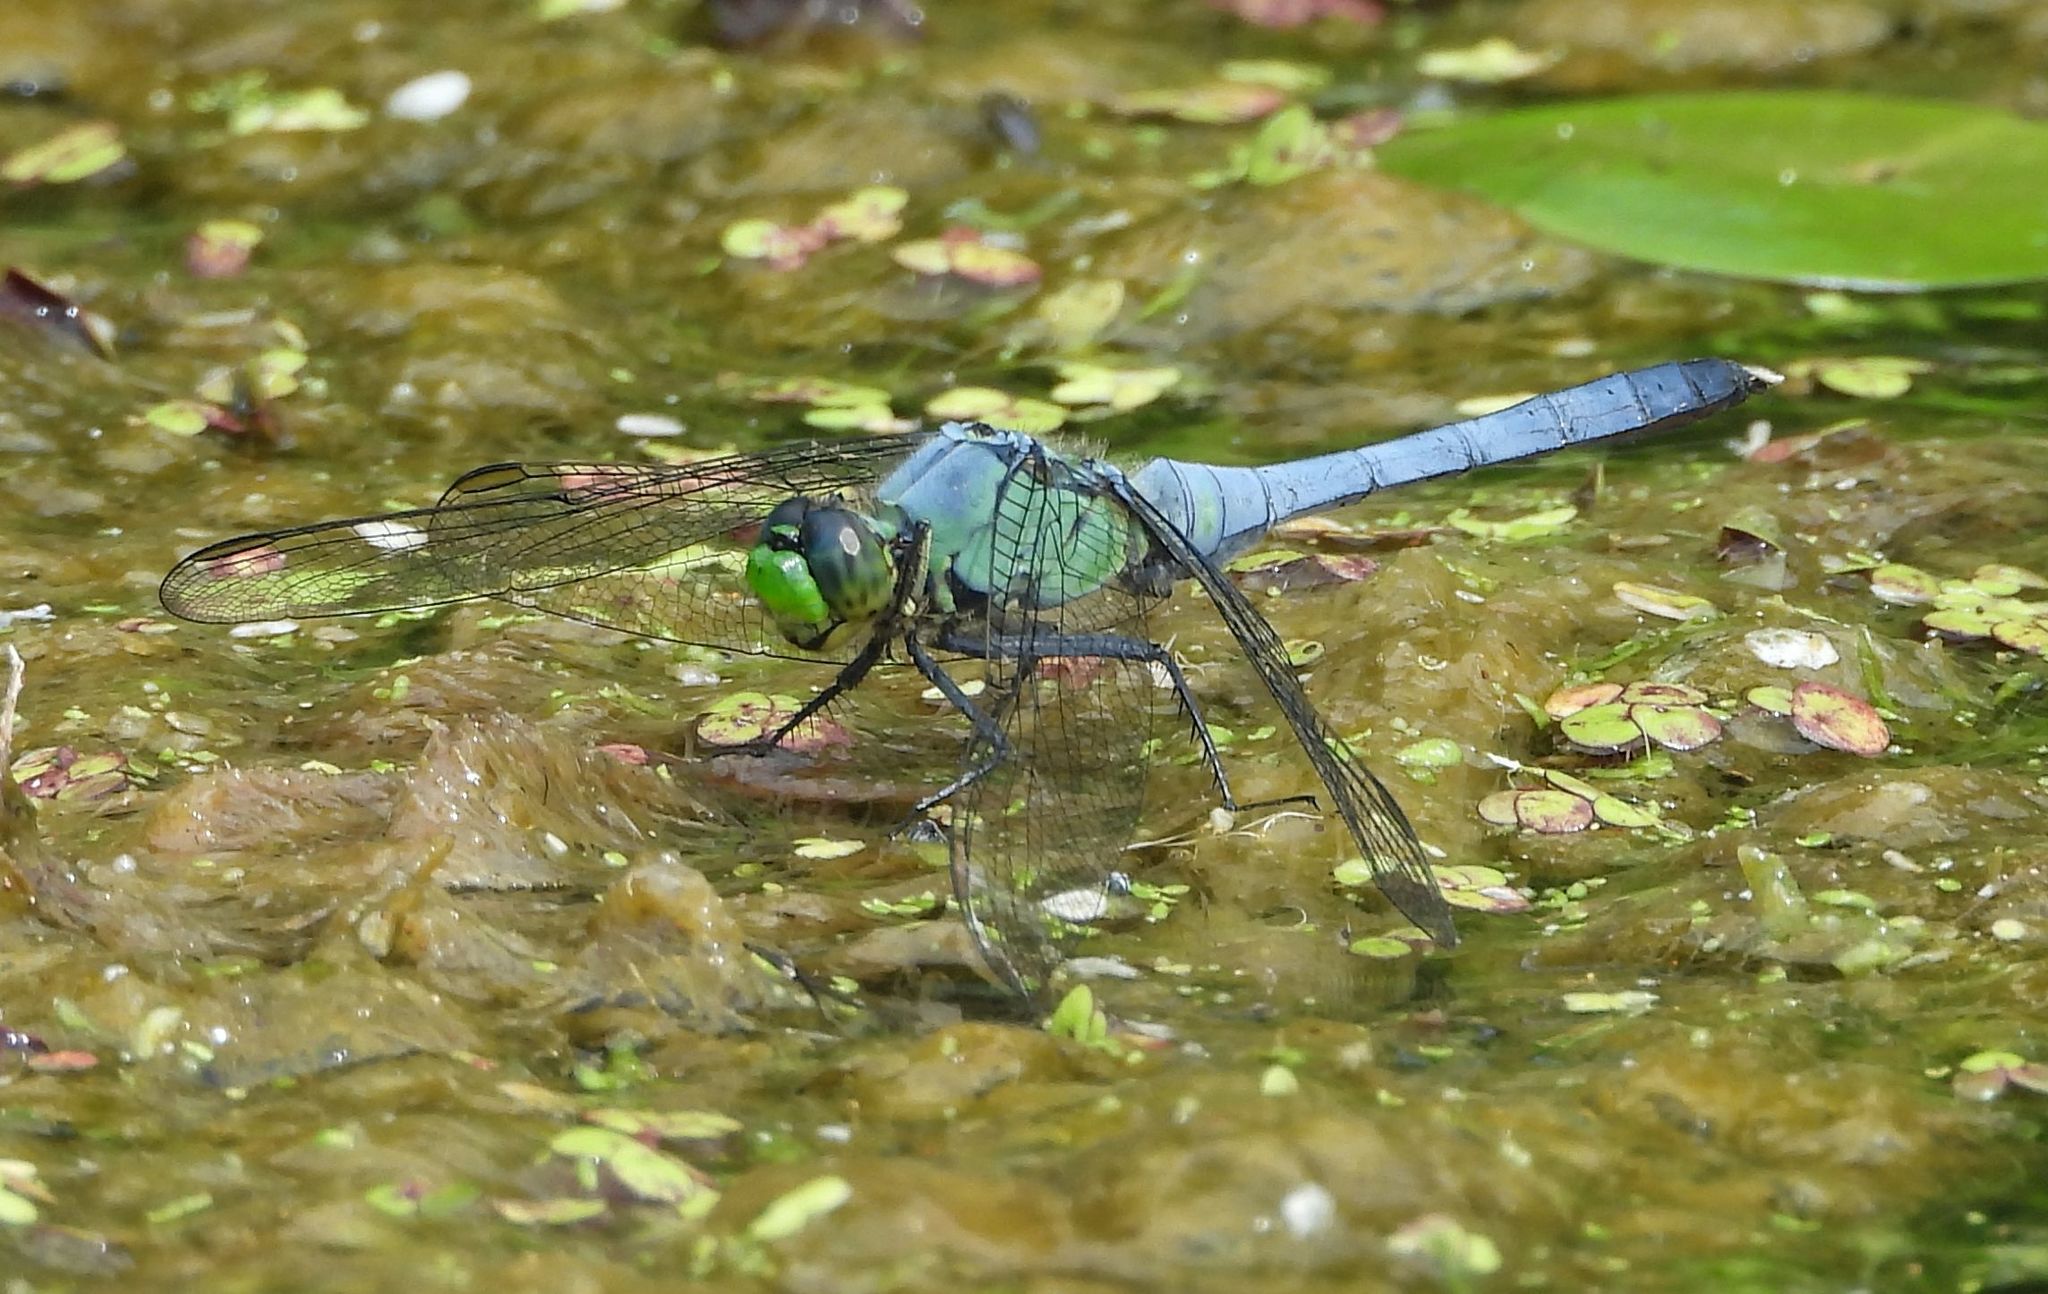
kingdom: Animalia
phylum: Arthropoda
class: Insecta
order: Odonata
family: Libellulidae
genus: Erythemis
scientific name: Erythemis simplicicollis
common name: Eastern pondhawk
